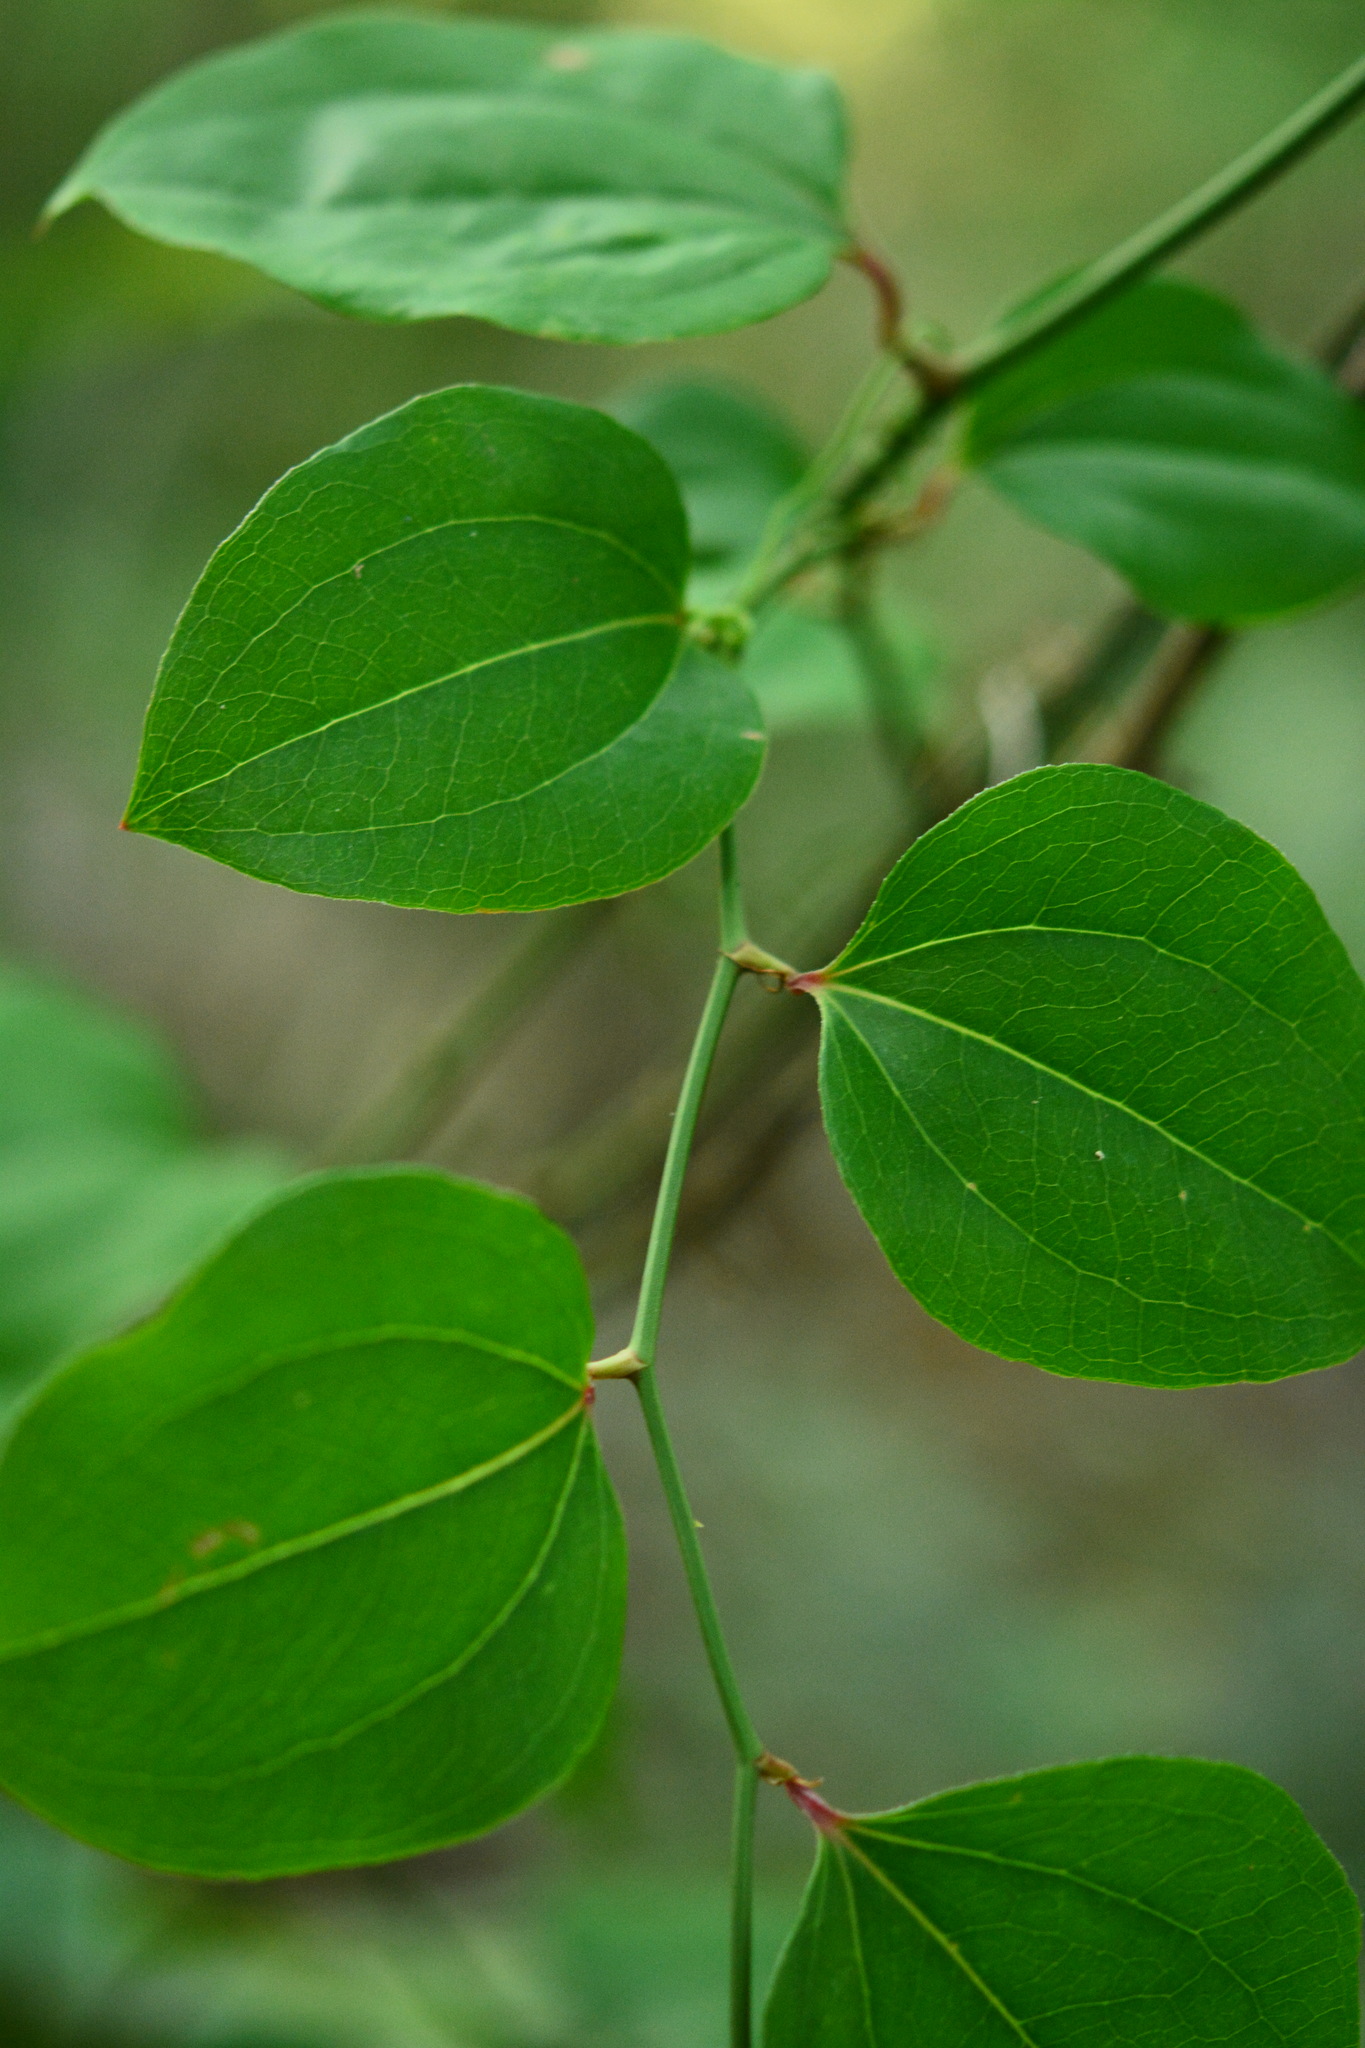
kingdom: Plantae
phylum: Tracheophyta
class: Liliopsida
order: Liliales
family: Smilacaceae
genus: Smilax
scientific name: Smilax rotundifolia
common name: Bullbriar
